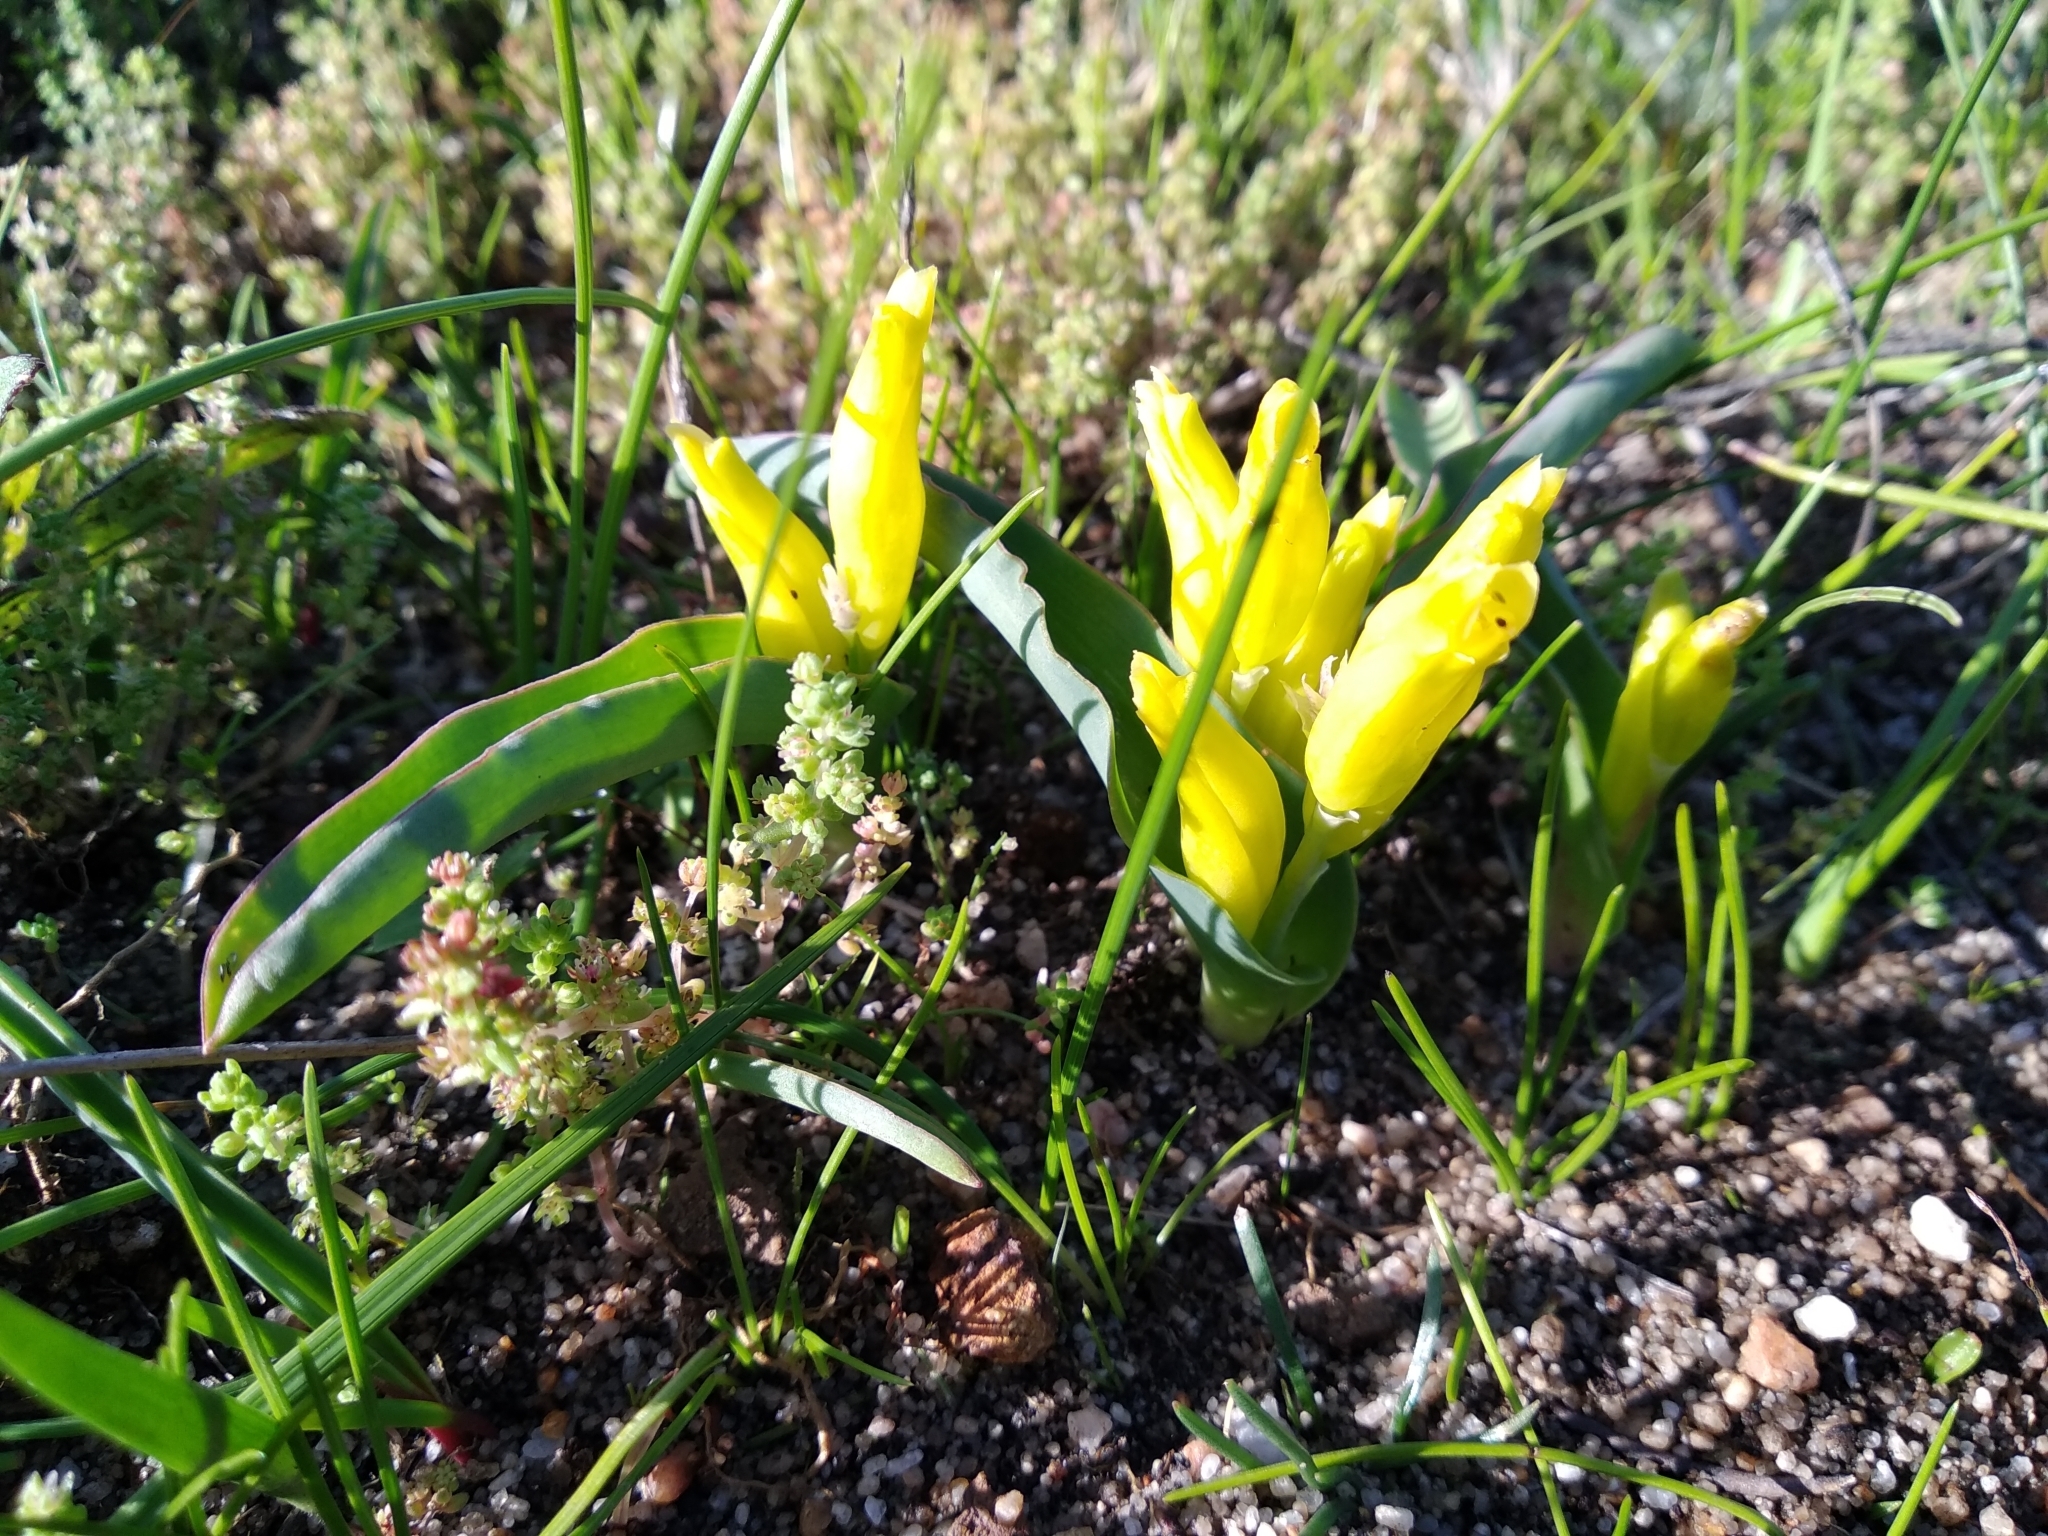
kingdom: Plantae
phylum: Tracheophyta
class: Liliopsida
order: Asparagales
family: Asparagaceae
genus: Lachenalia
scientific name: Lachenalia reflexa
